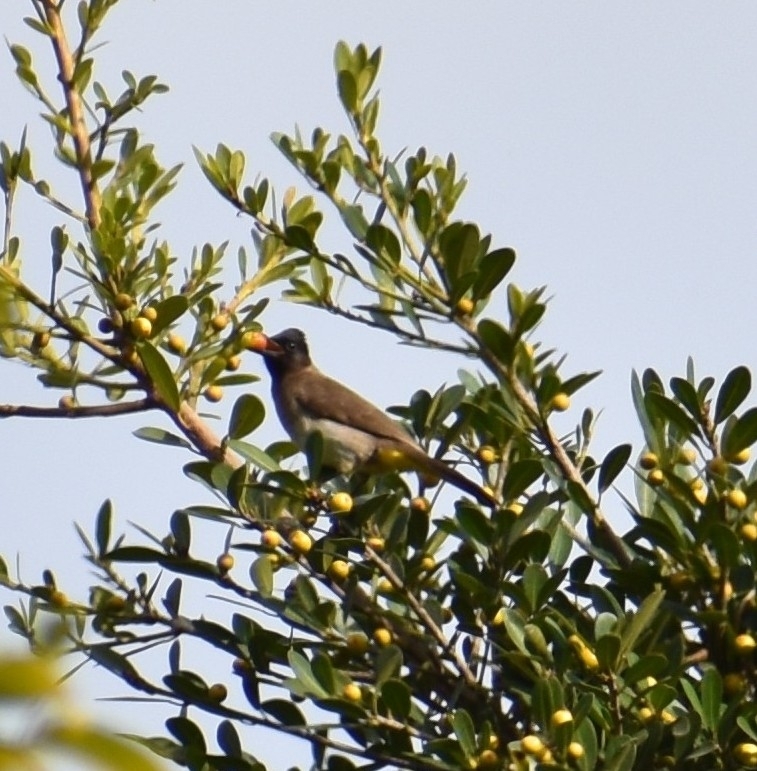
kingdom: Animalia
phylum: Chordata
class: Aves
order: Passeriformes
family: Pycnonotidae
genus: Pycnonotus
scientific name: Pycnonotus barbatus
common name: Common bulbul
